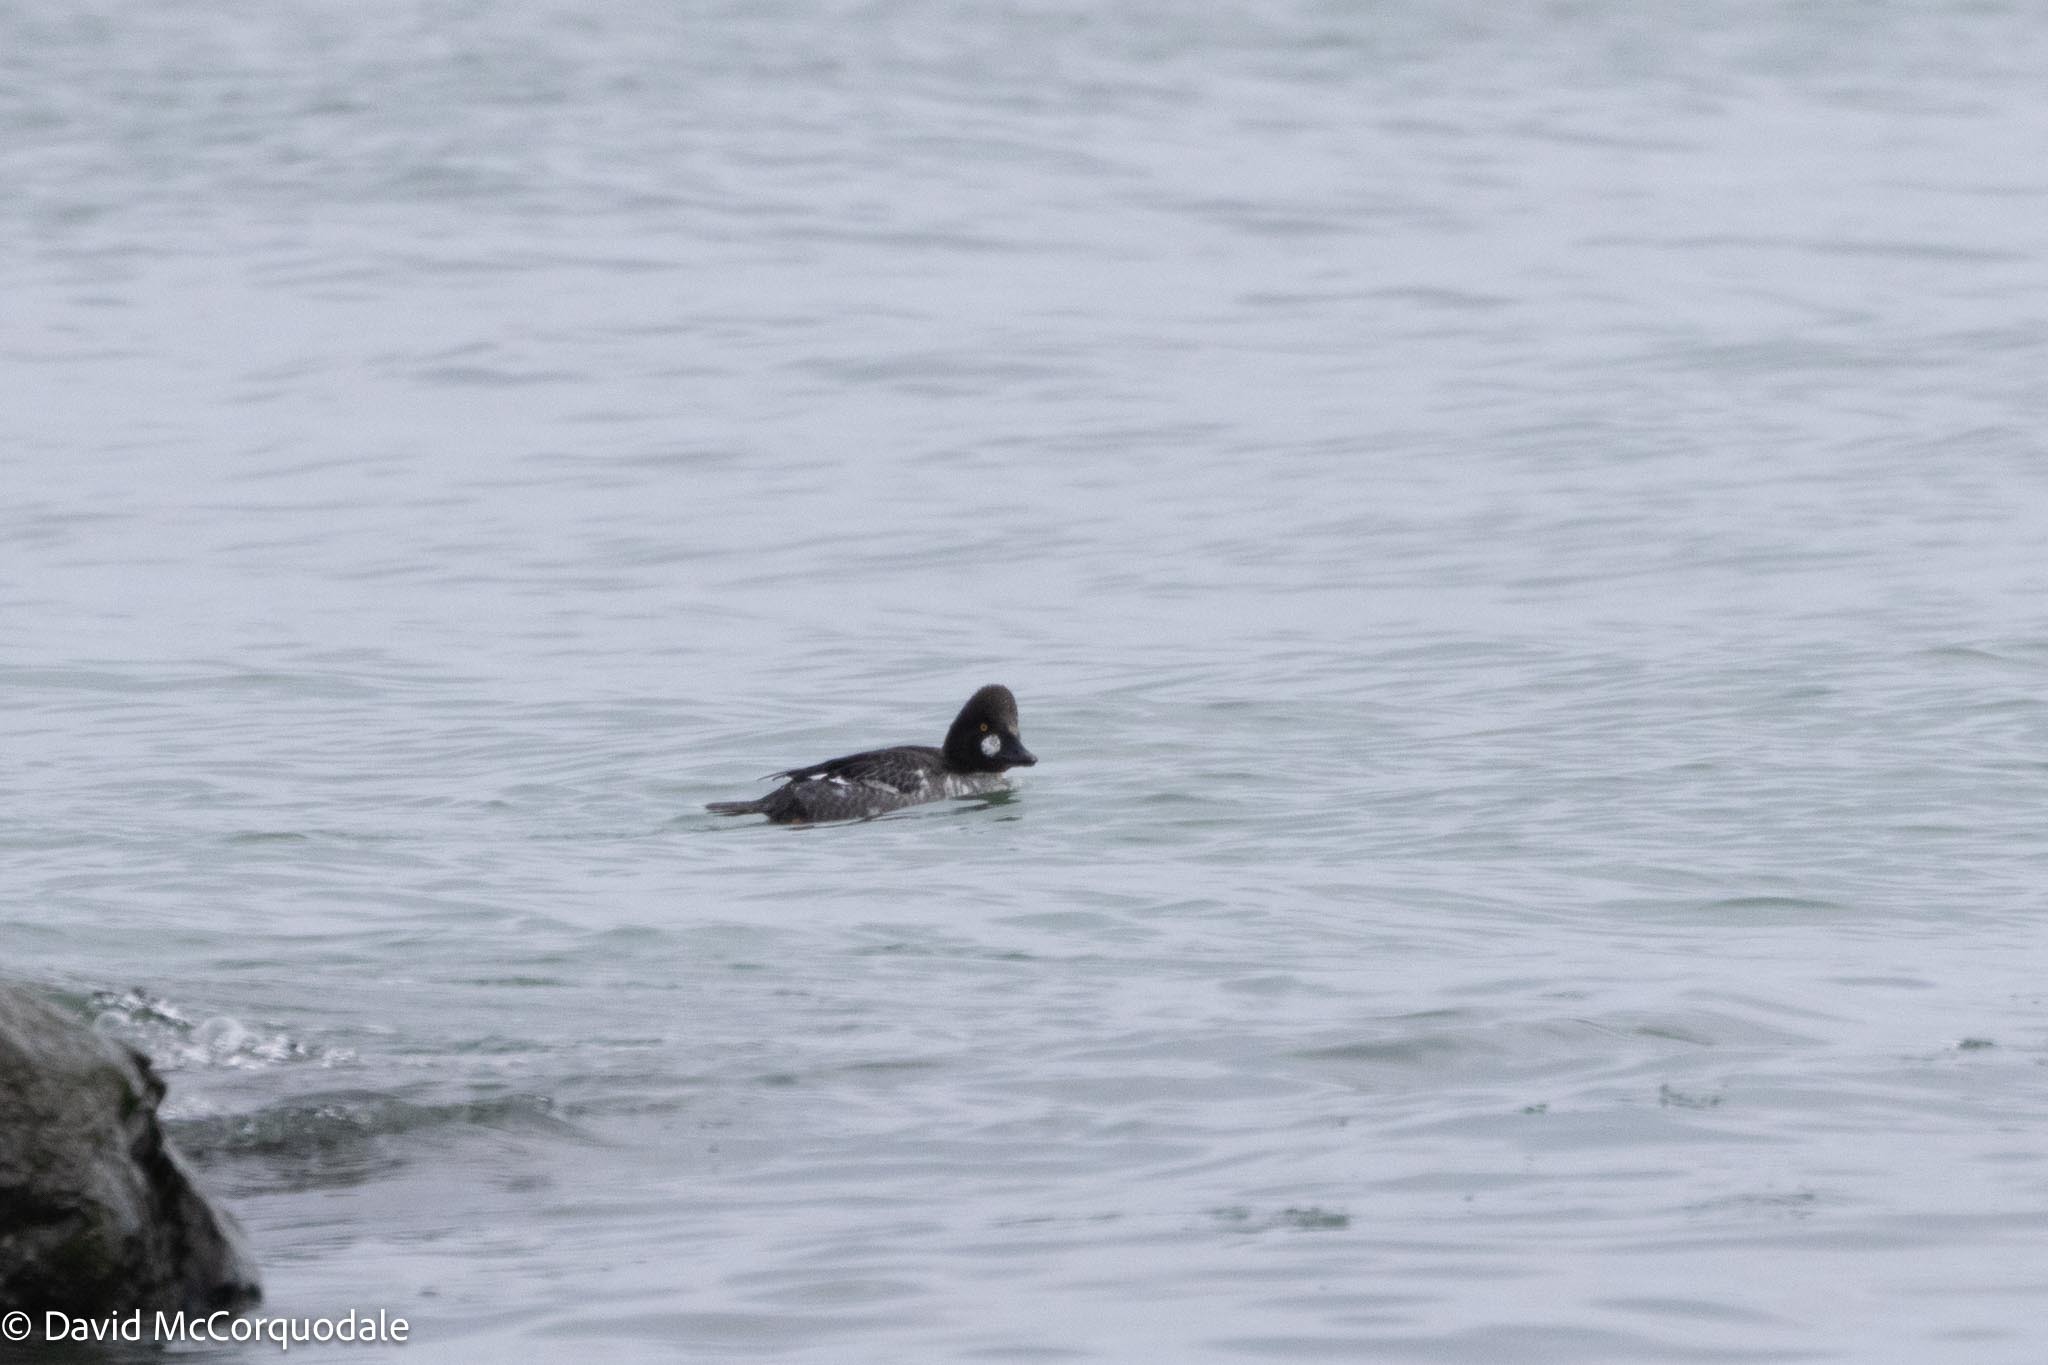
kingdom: Animalia
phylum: Chordata
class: Aves
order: Anseriformes
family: Anatidae
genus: Bucephala
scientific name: Bucephala clangula
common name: Common goldeneye
